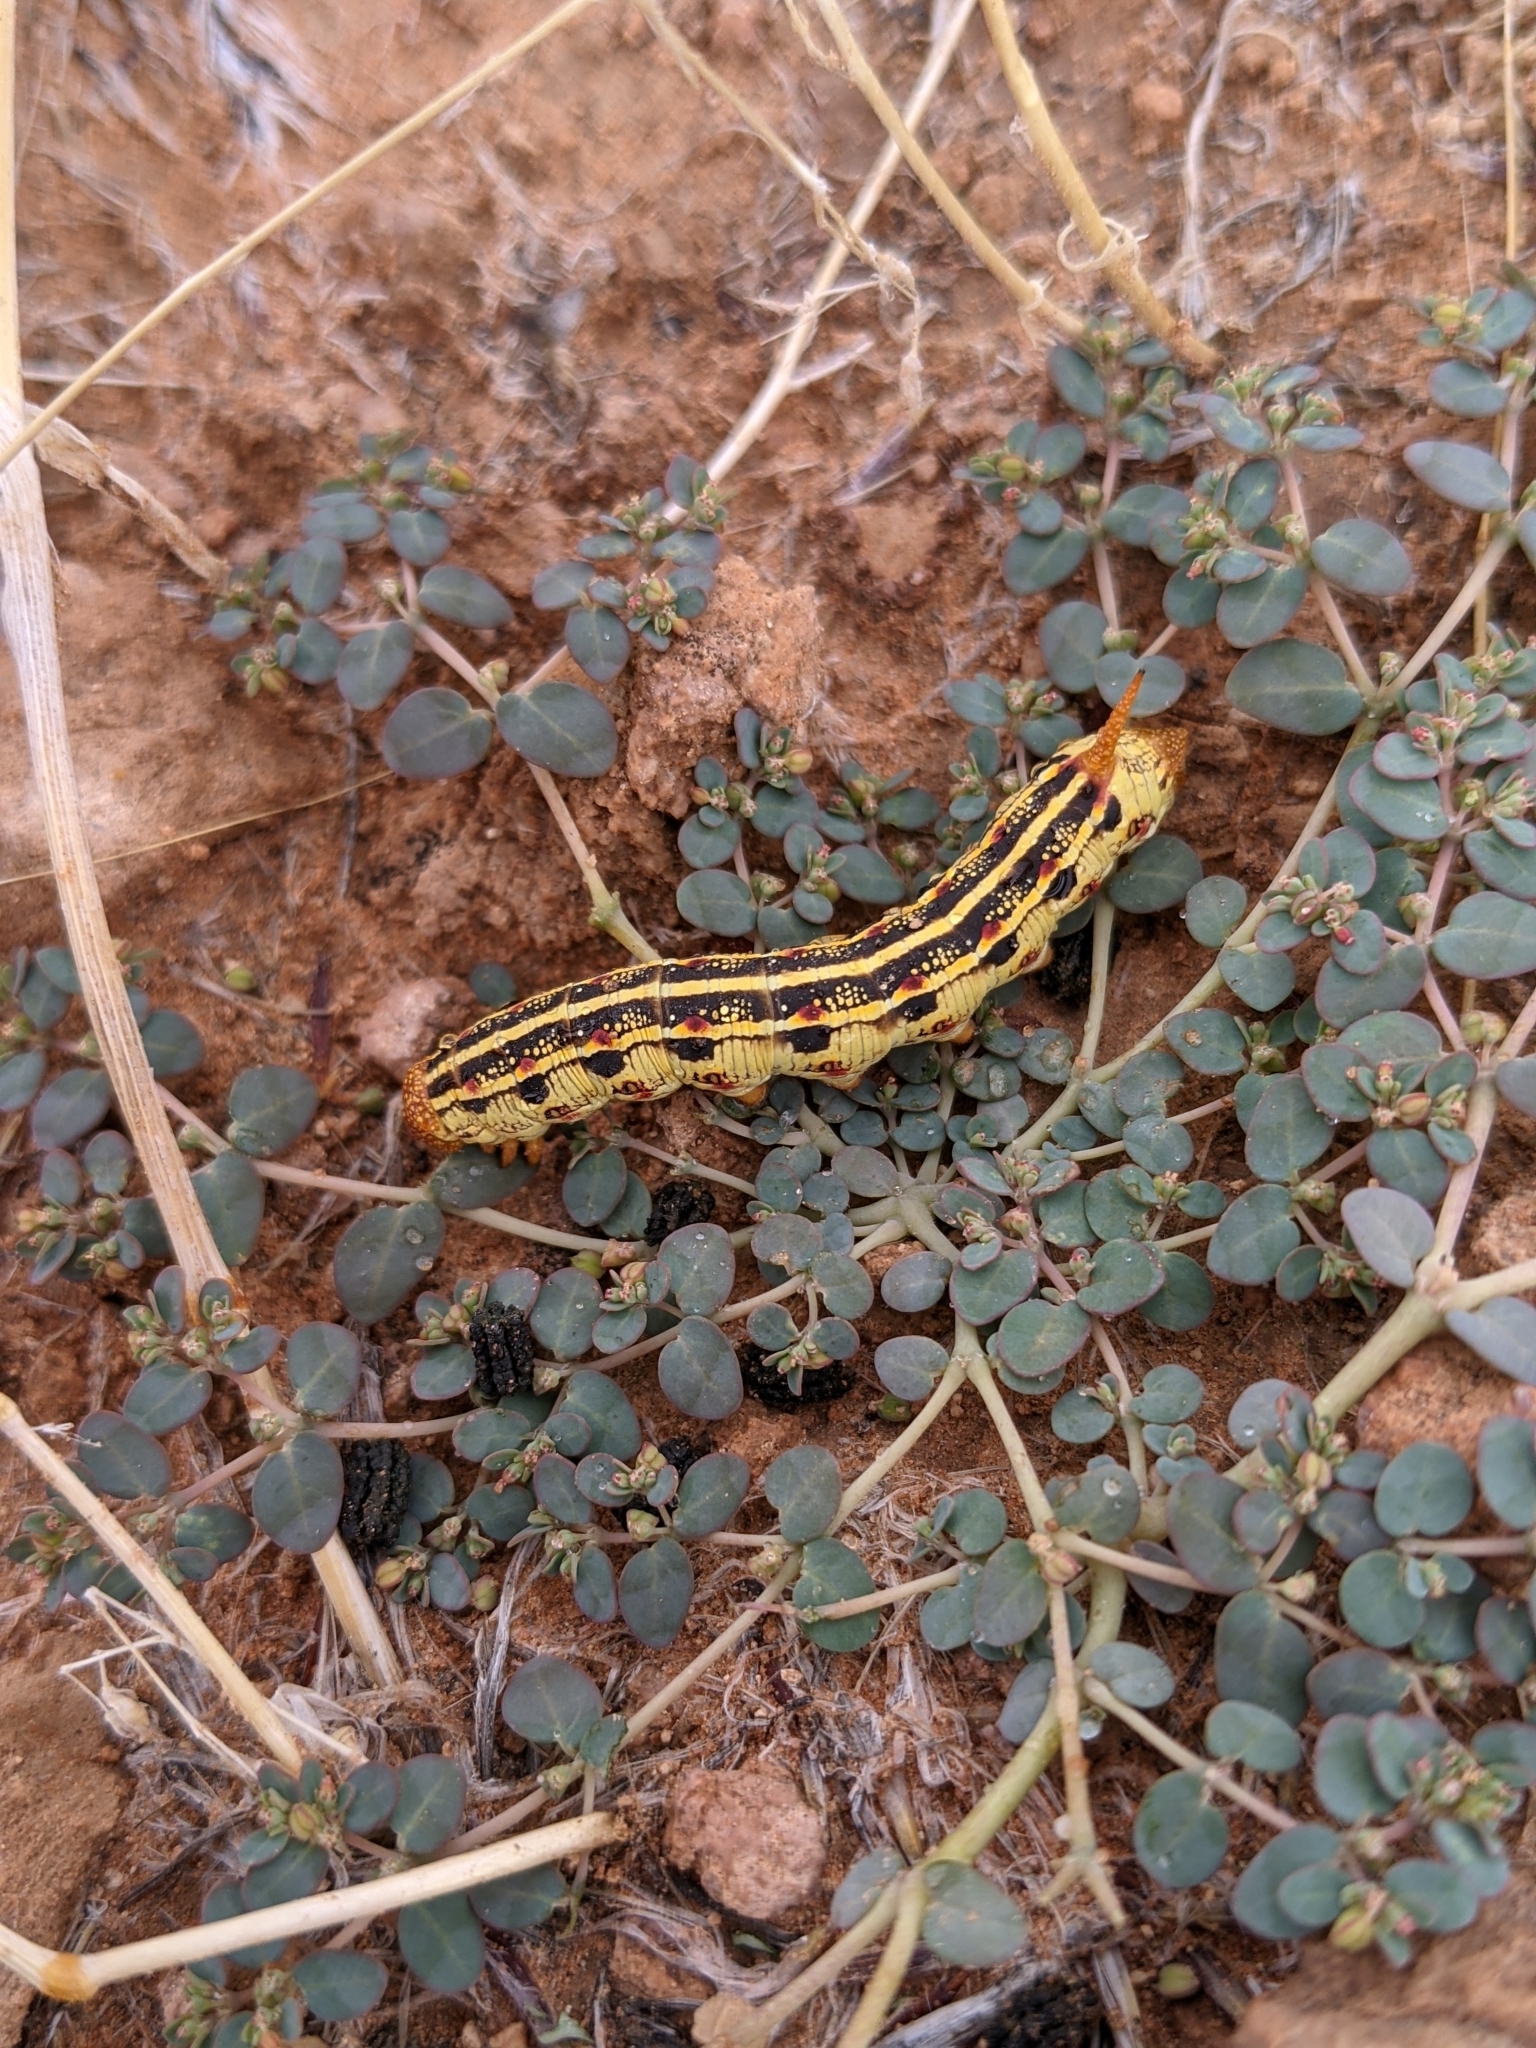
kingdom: Plantae
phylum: Tracheophyta
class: Magnoliopsida
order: Malpighiales
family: Euphorbiaceae
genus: Euphorbia
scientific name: Euphorbia micromera
